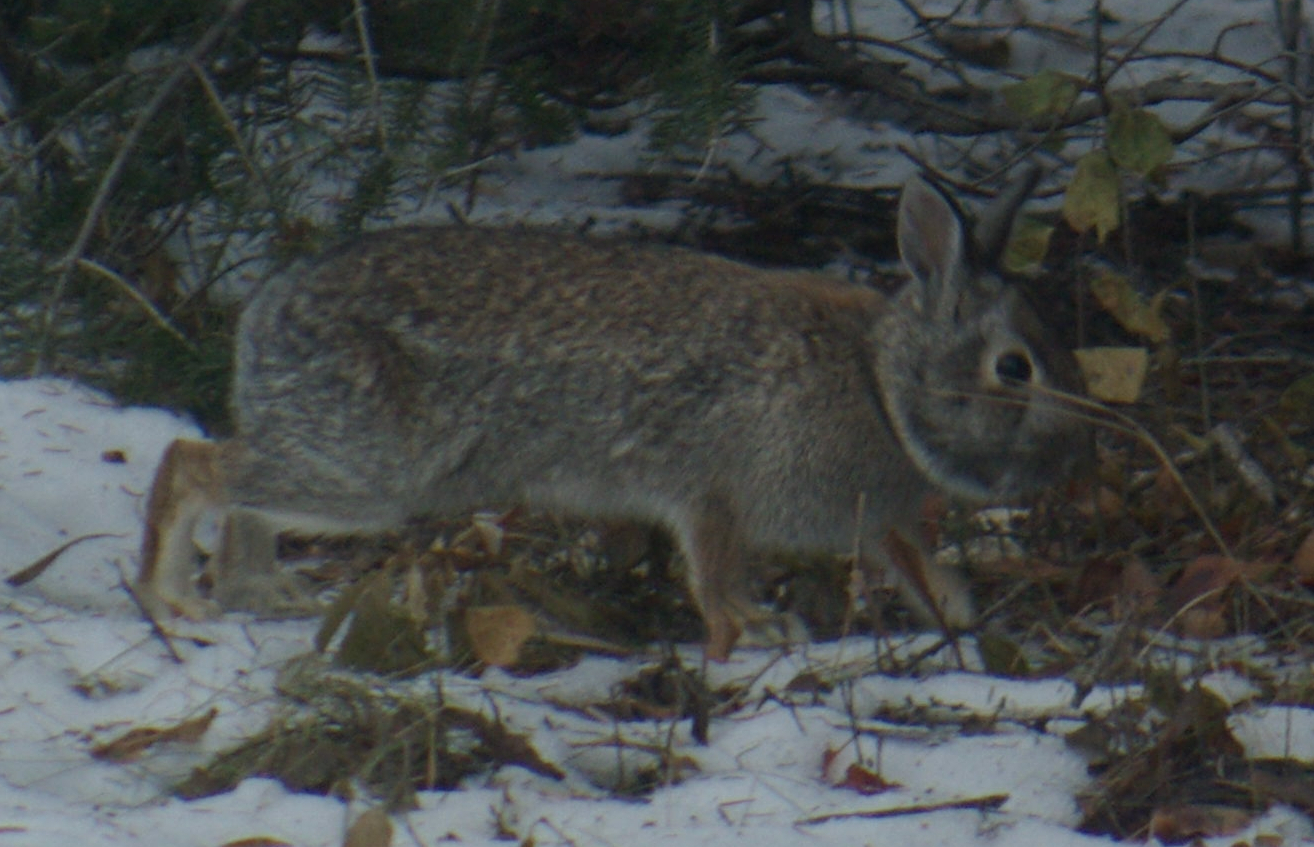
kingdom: Animalia
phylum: Chordata
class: Mammalia
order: Lagomorpha
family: Leporidae
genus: Sylvilagus
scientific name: Sylvilagus floridanus
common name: Eastern cottontail
